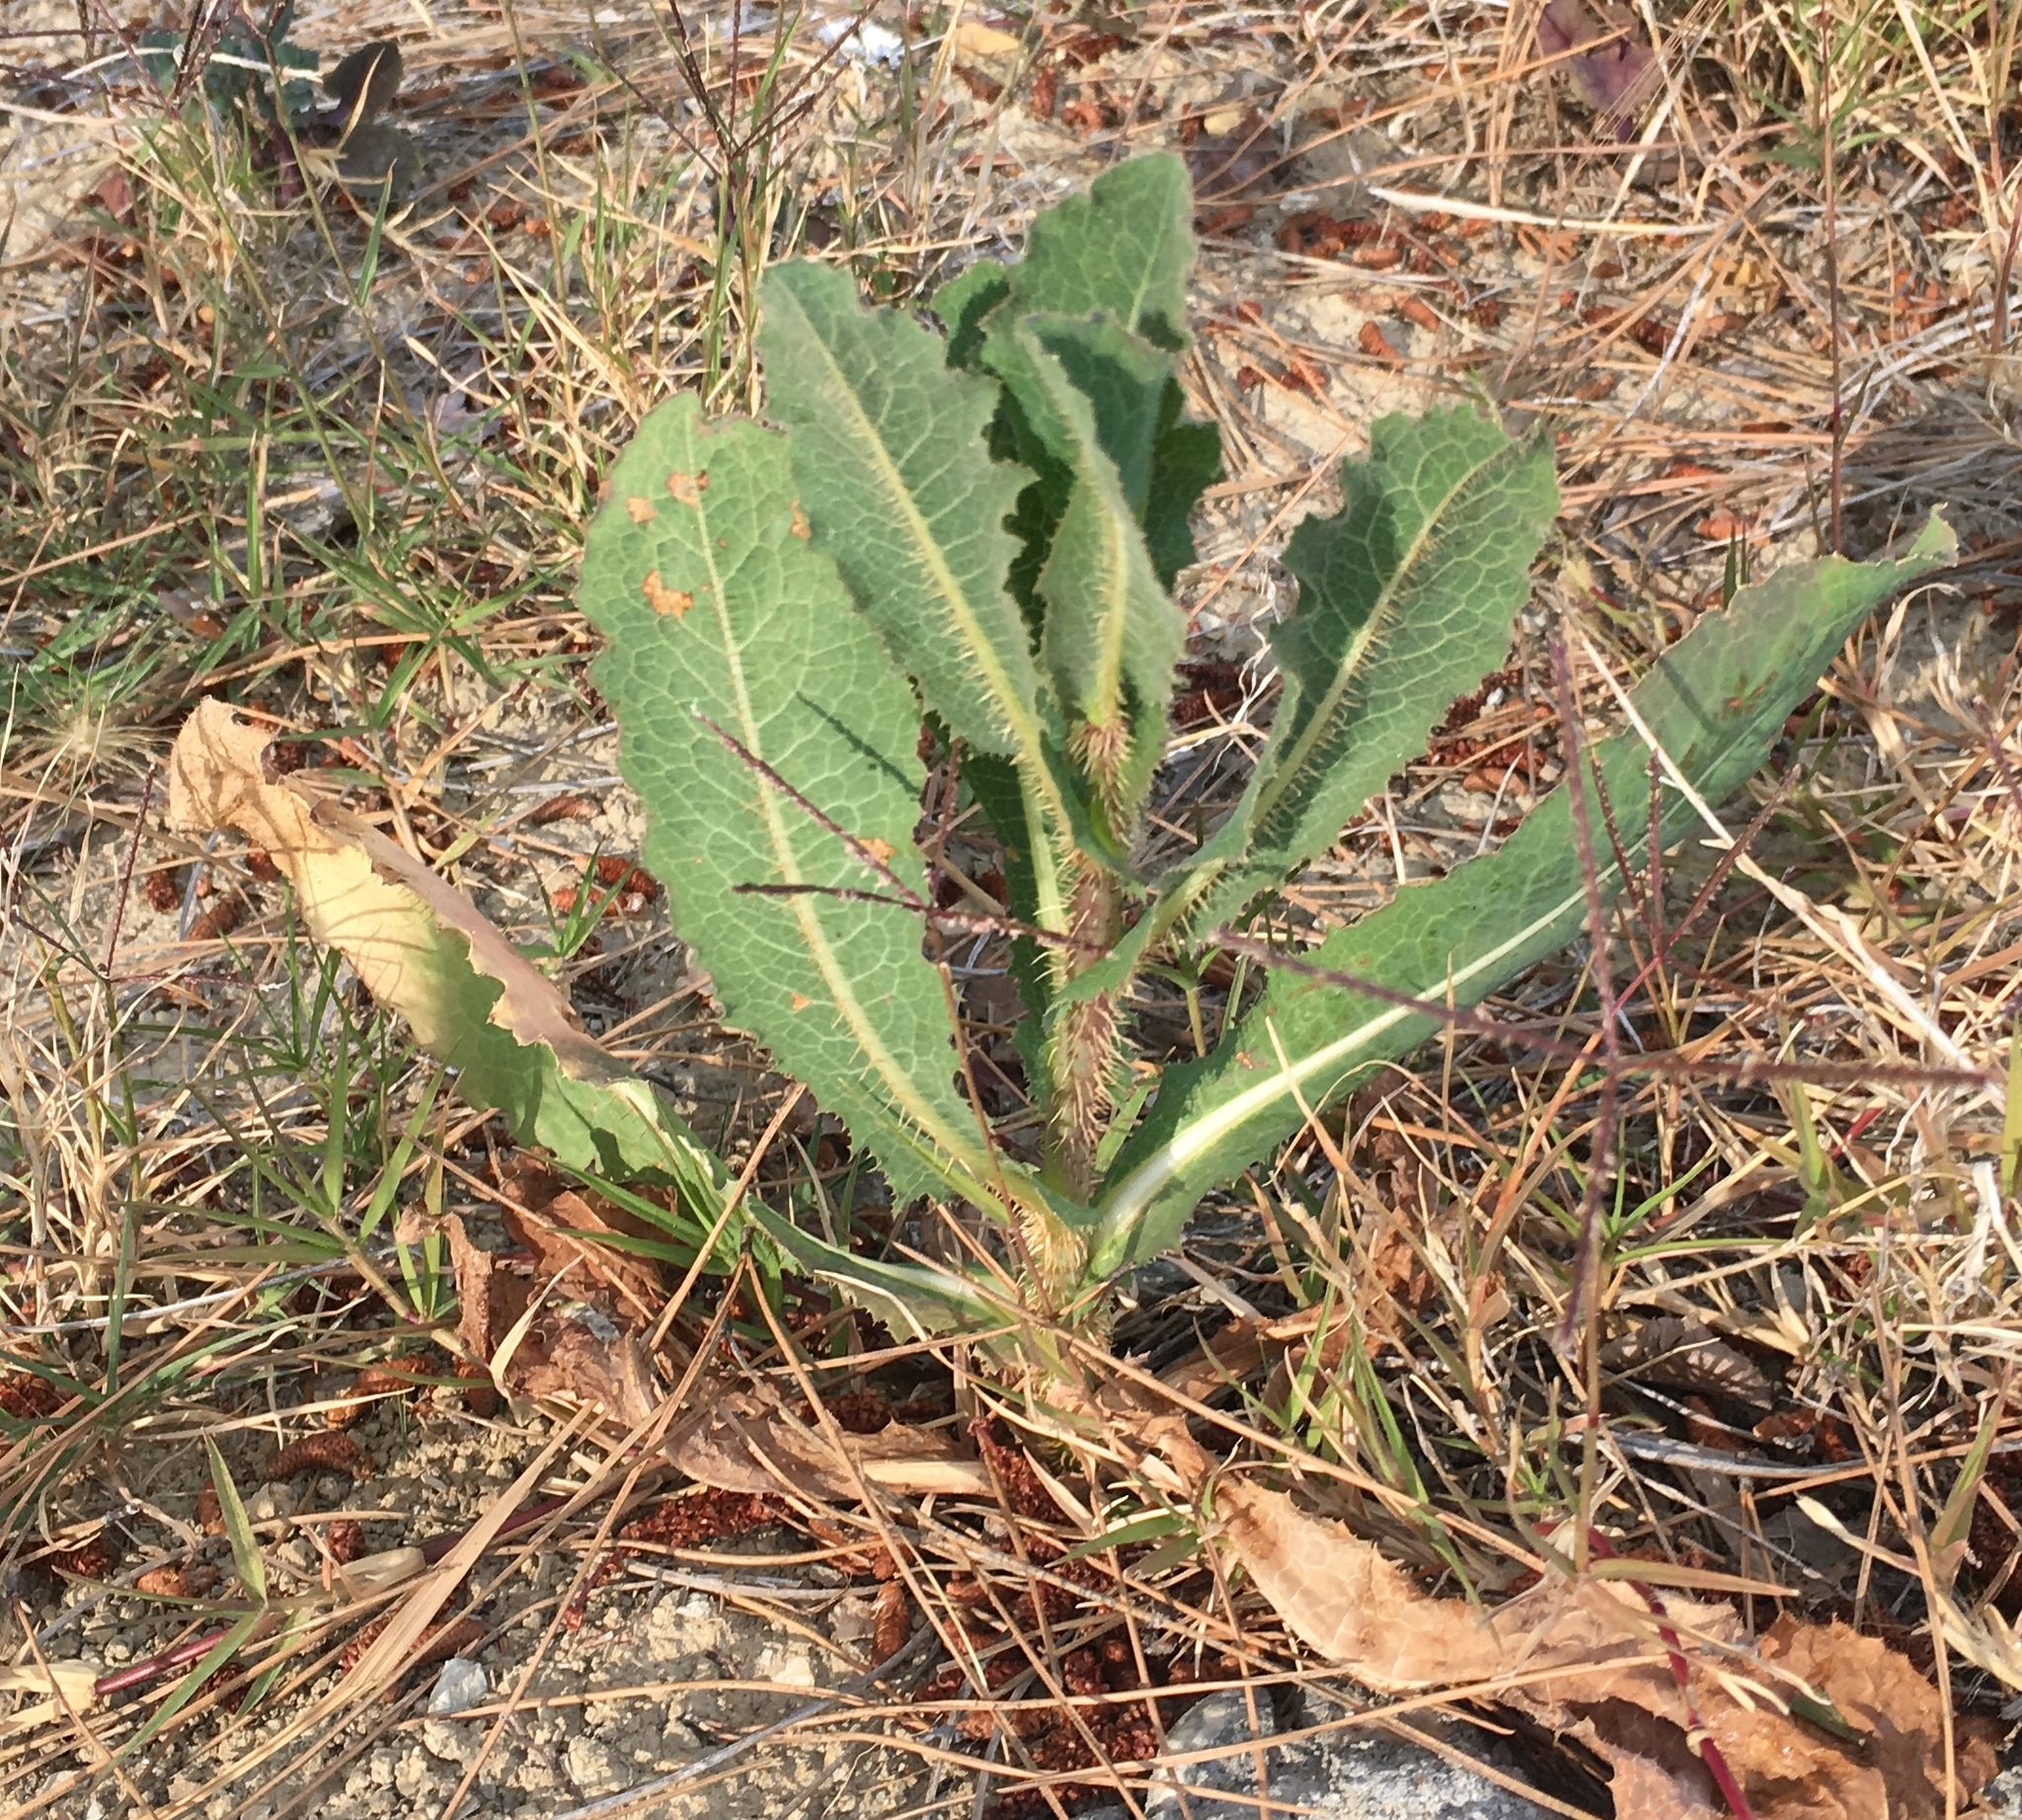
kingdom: Plantae
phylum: Tracheophyta
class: Magnoliopsida
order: Asterales
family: Asteraceae
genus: Lactuca
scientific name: Lactuca serriola
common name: Prickly lettuce
